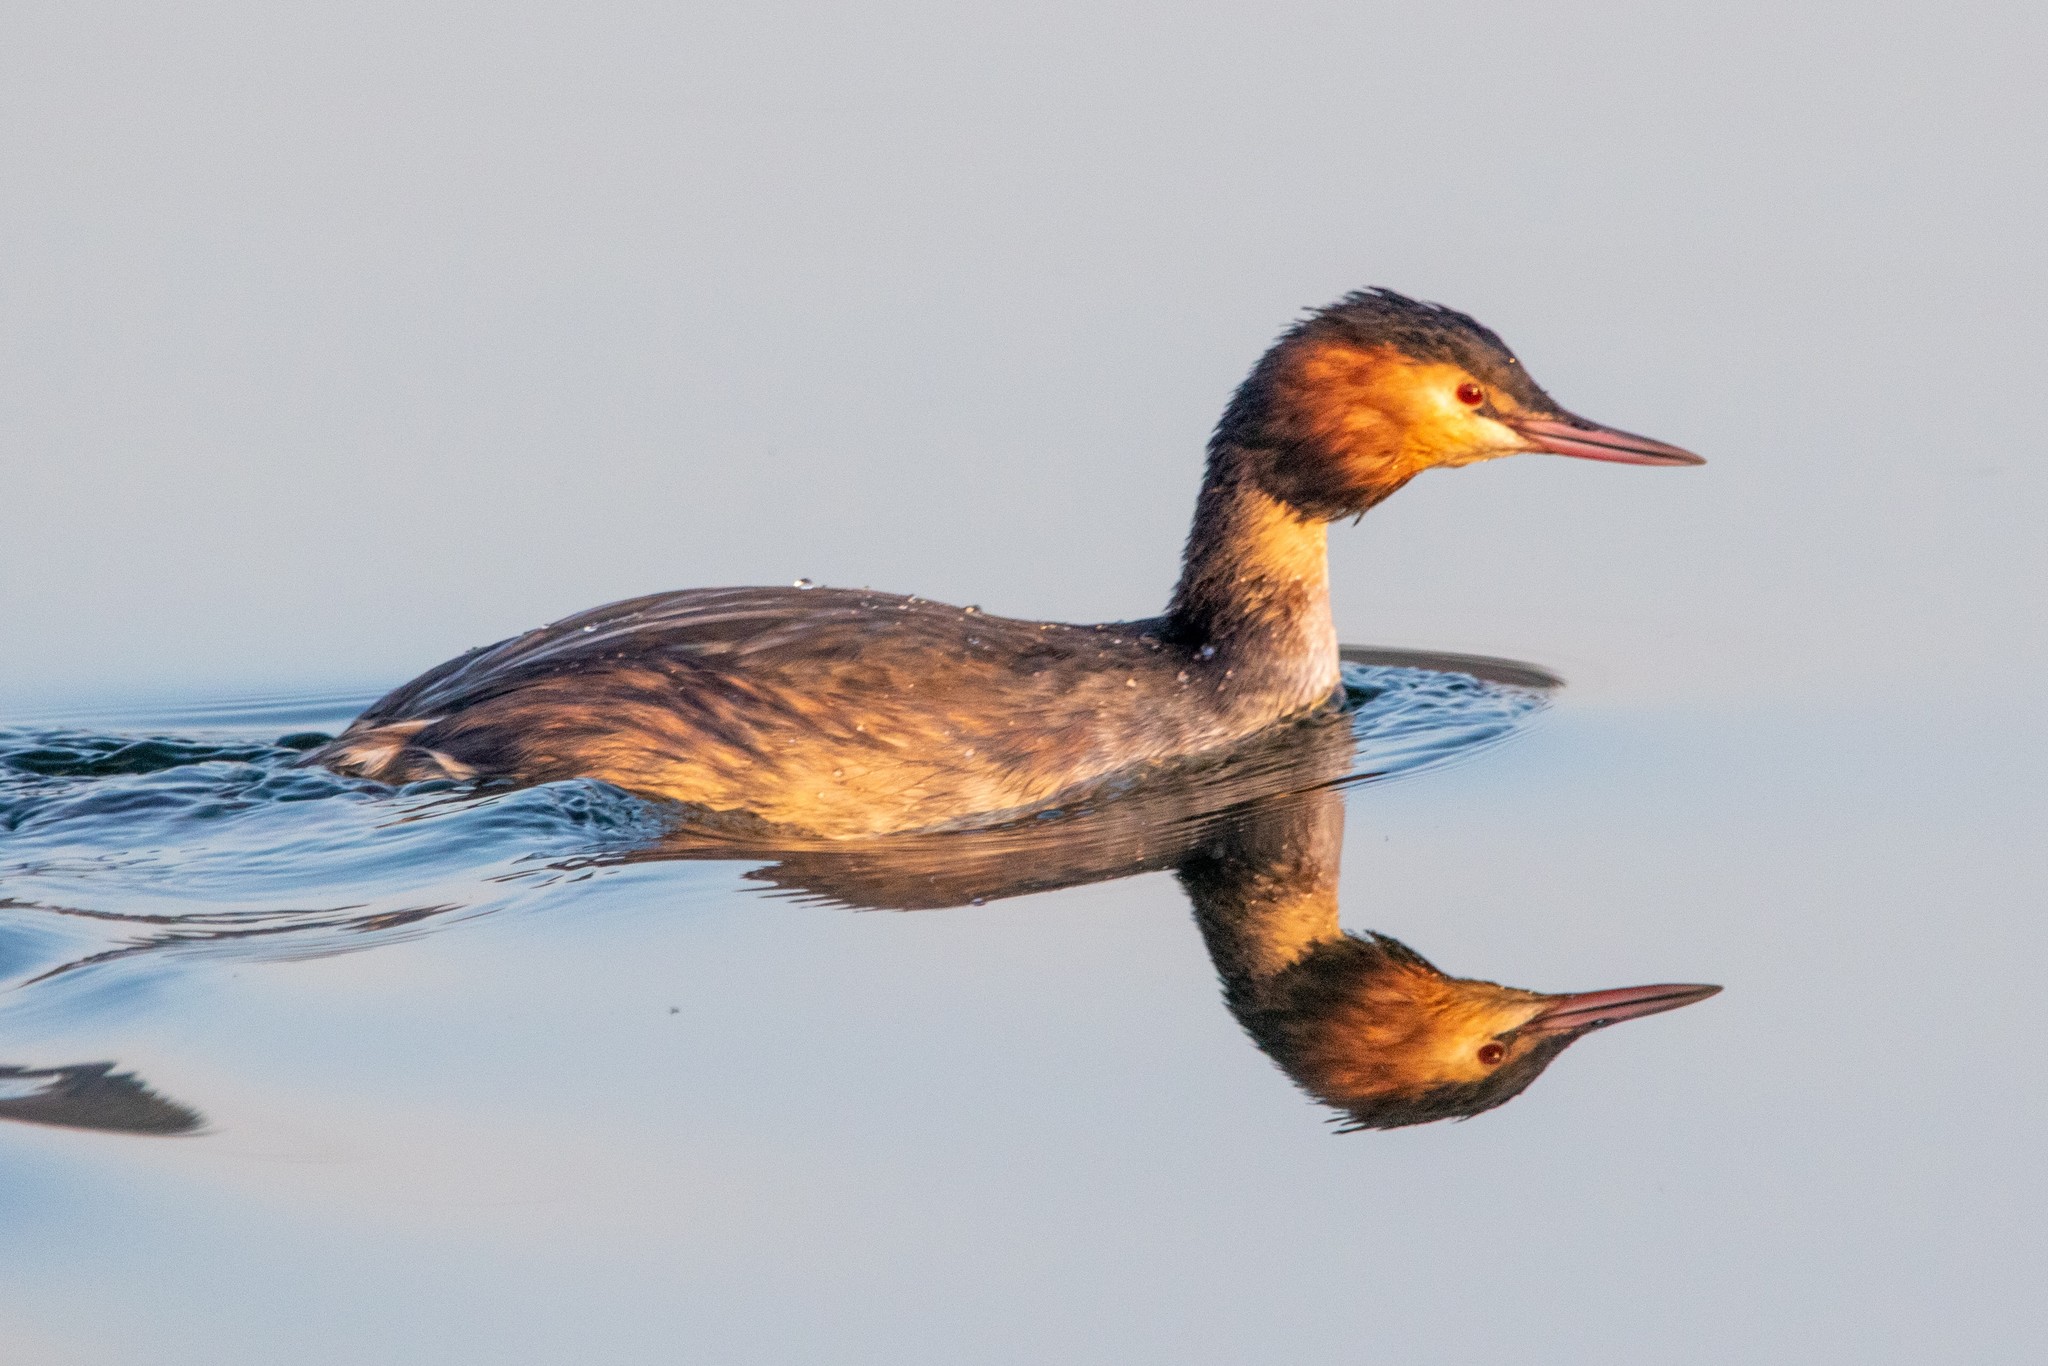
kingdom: Animalia
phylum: Chordata
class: Aves
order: Podicipediformes
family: Podicipedidae
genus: Podiceps
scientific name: Podiceps cristatus
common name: Great crested grebe
